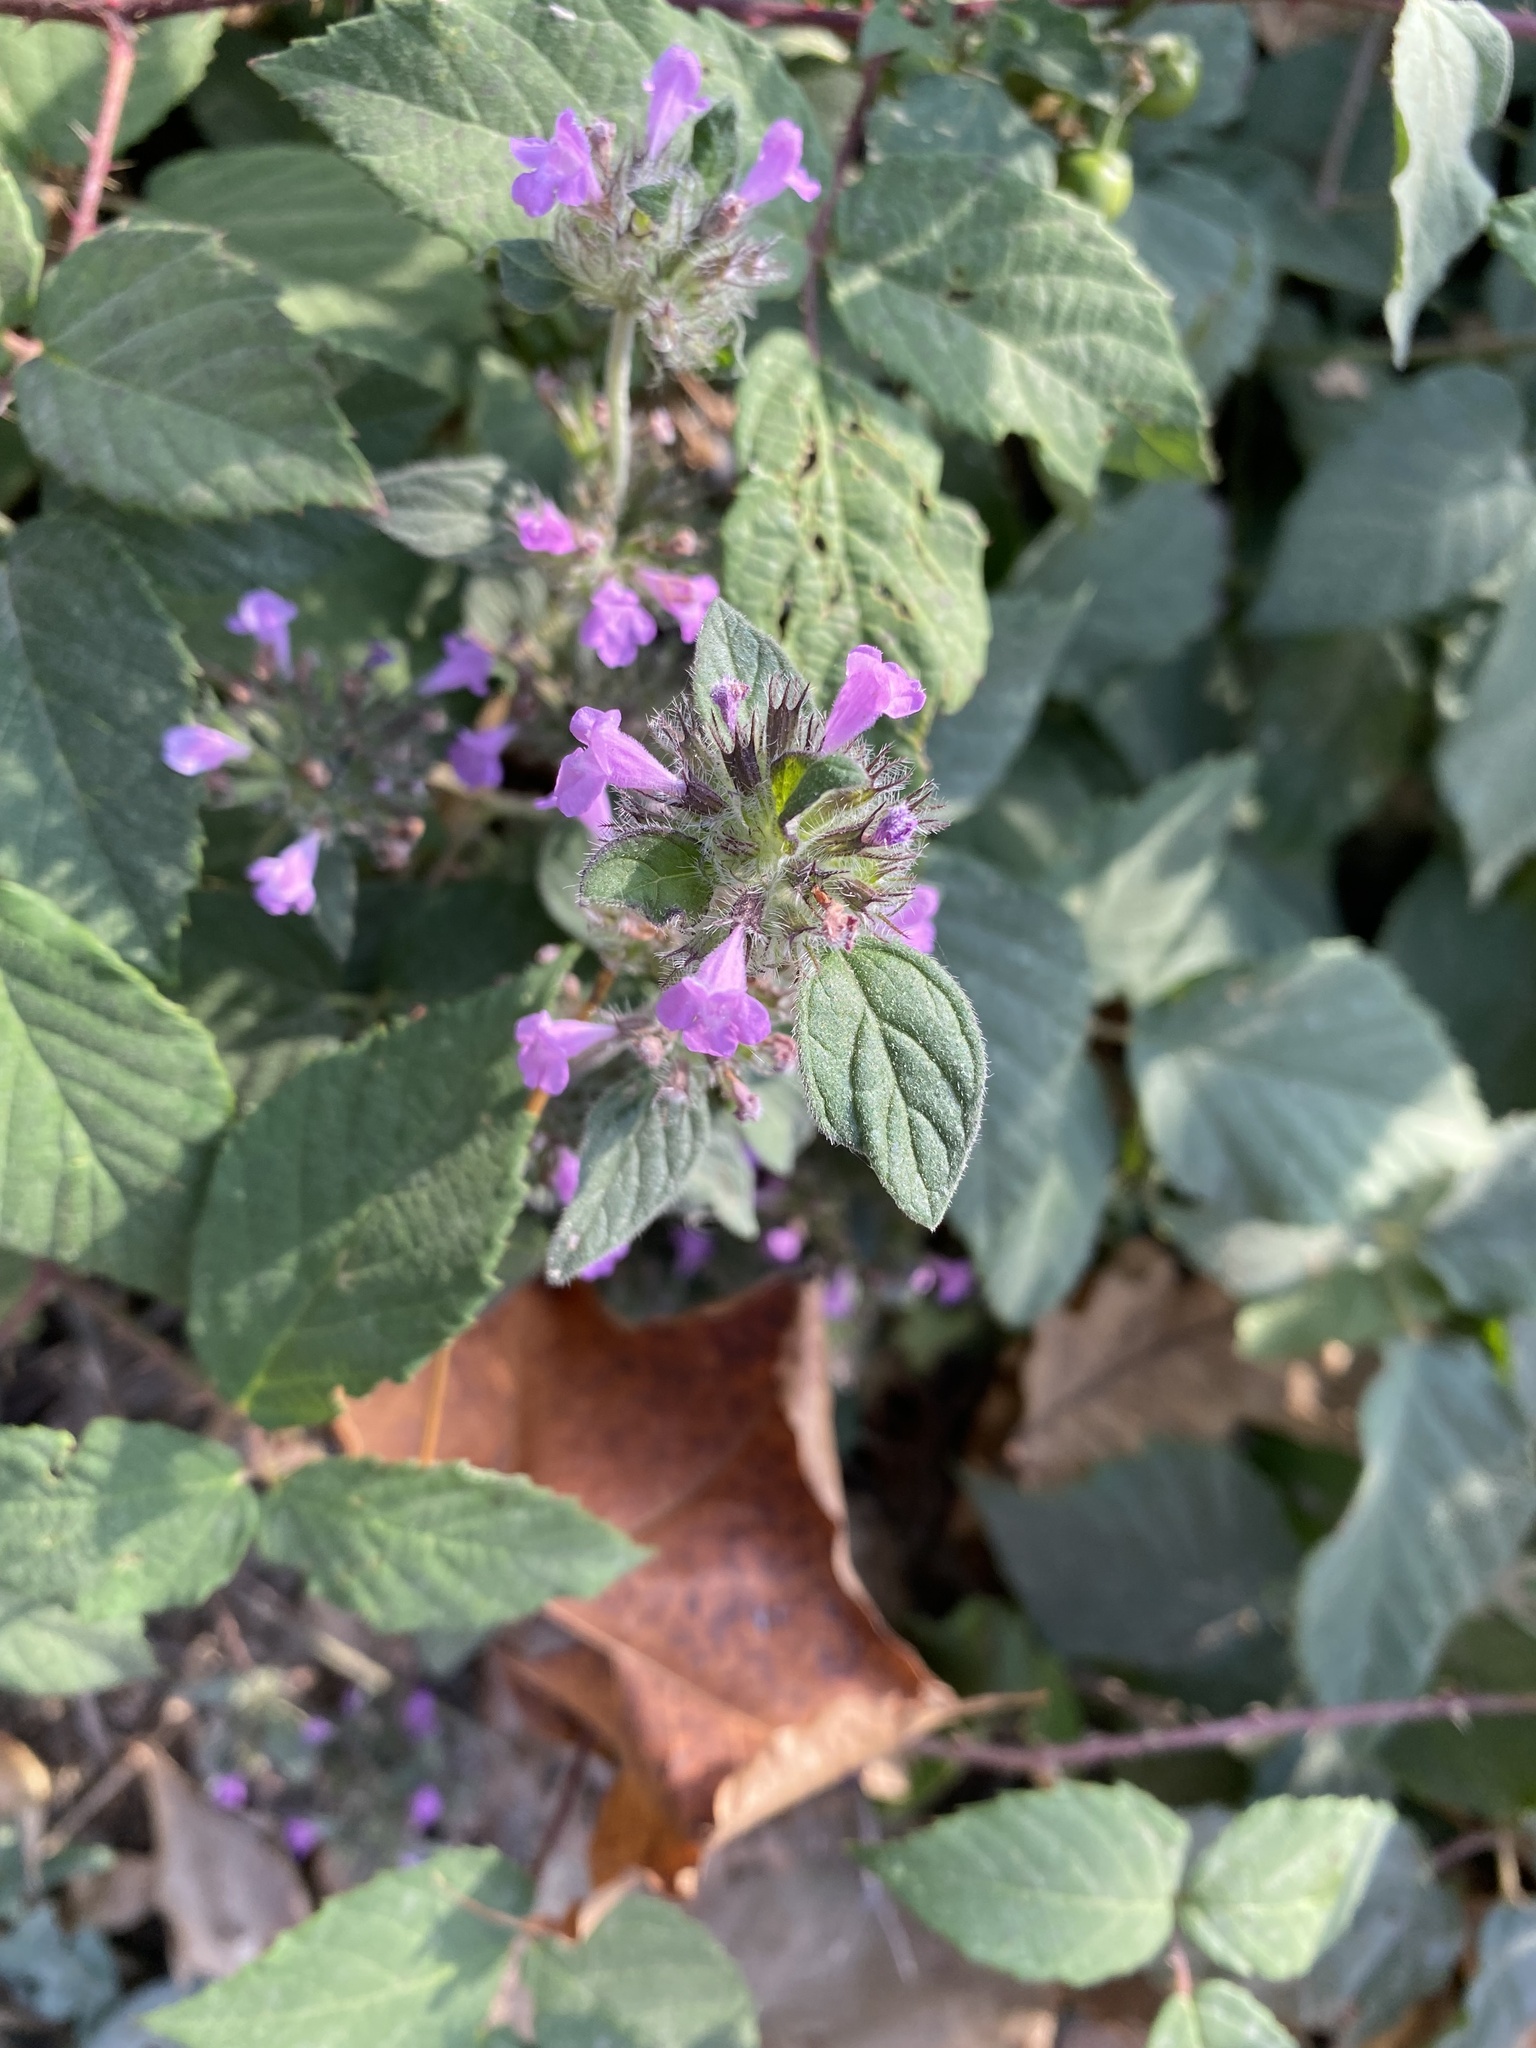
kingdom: Plantae
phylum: Tracheophyta
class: Magnoliopsida
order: Lamiales
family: Lamiaceae
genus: Clinopodium
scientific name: Clinopodium caucasicum
